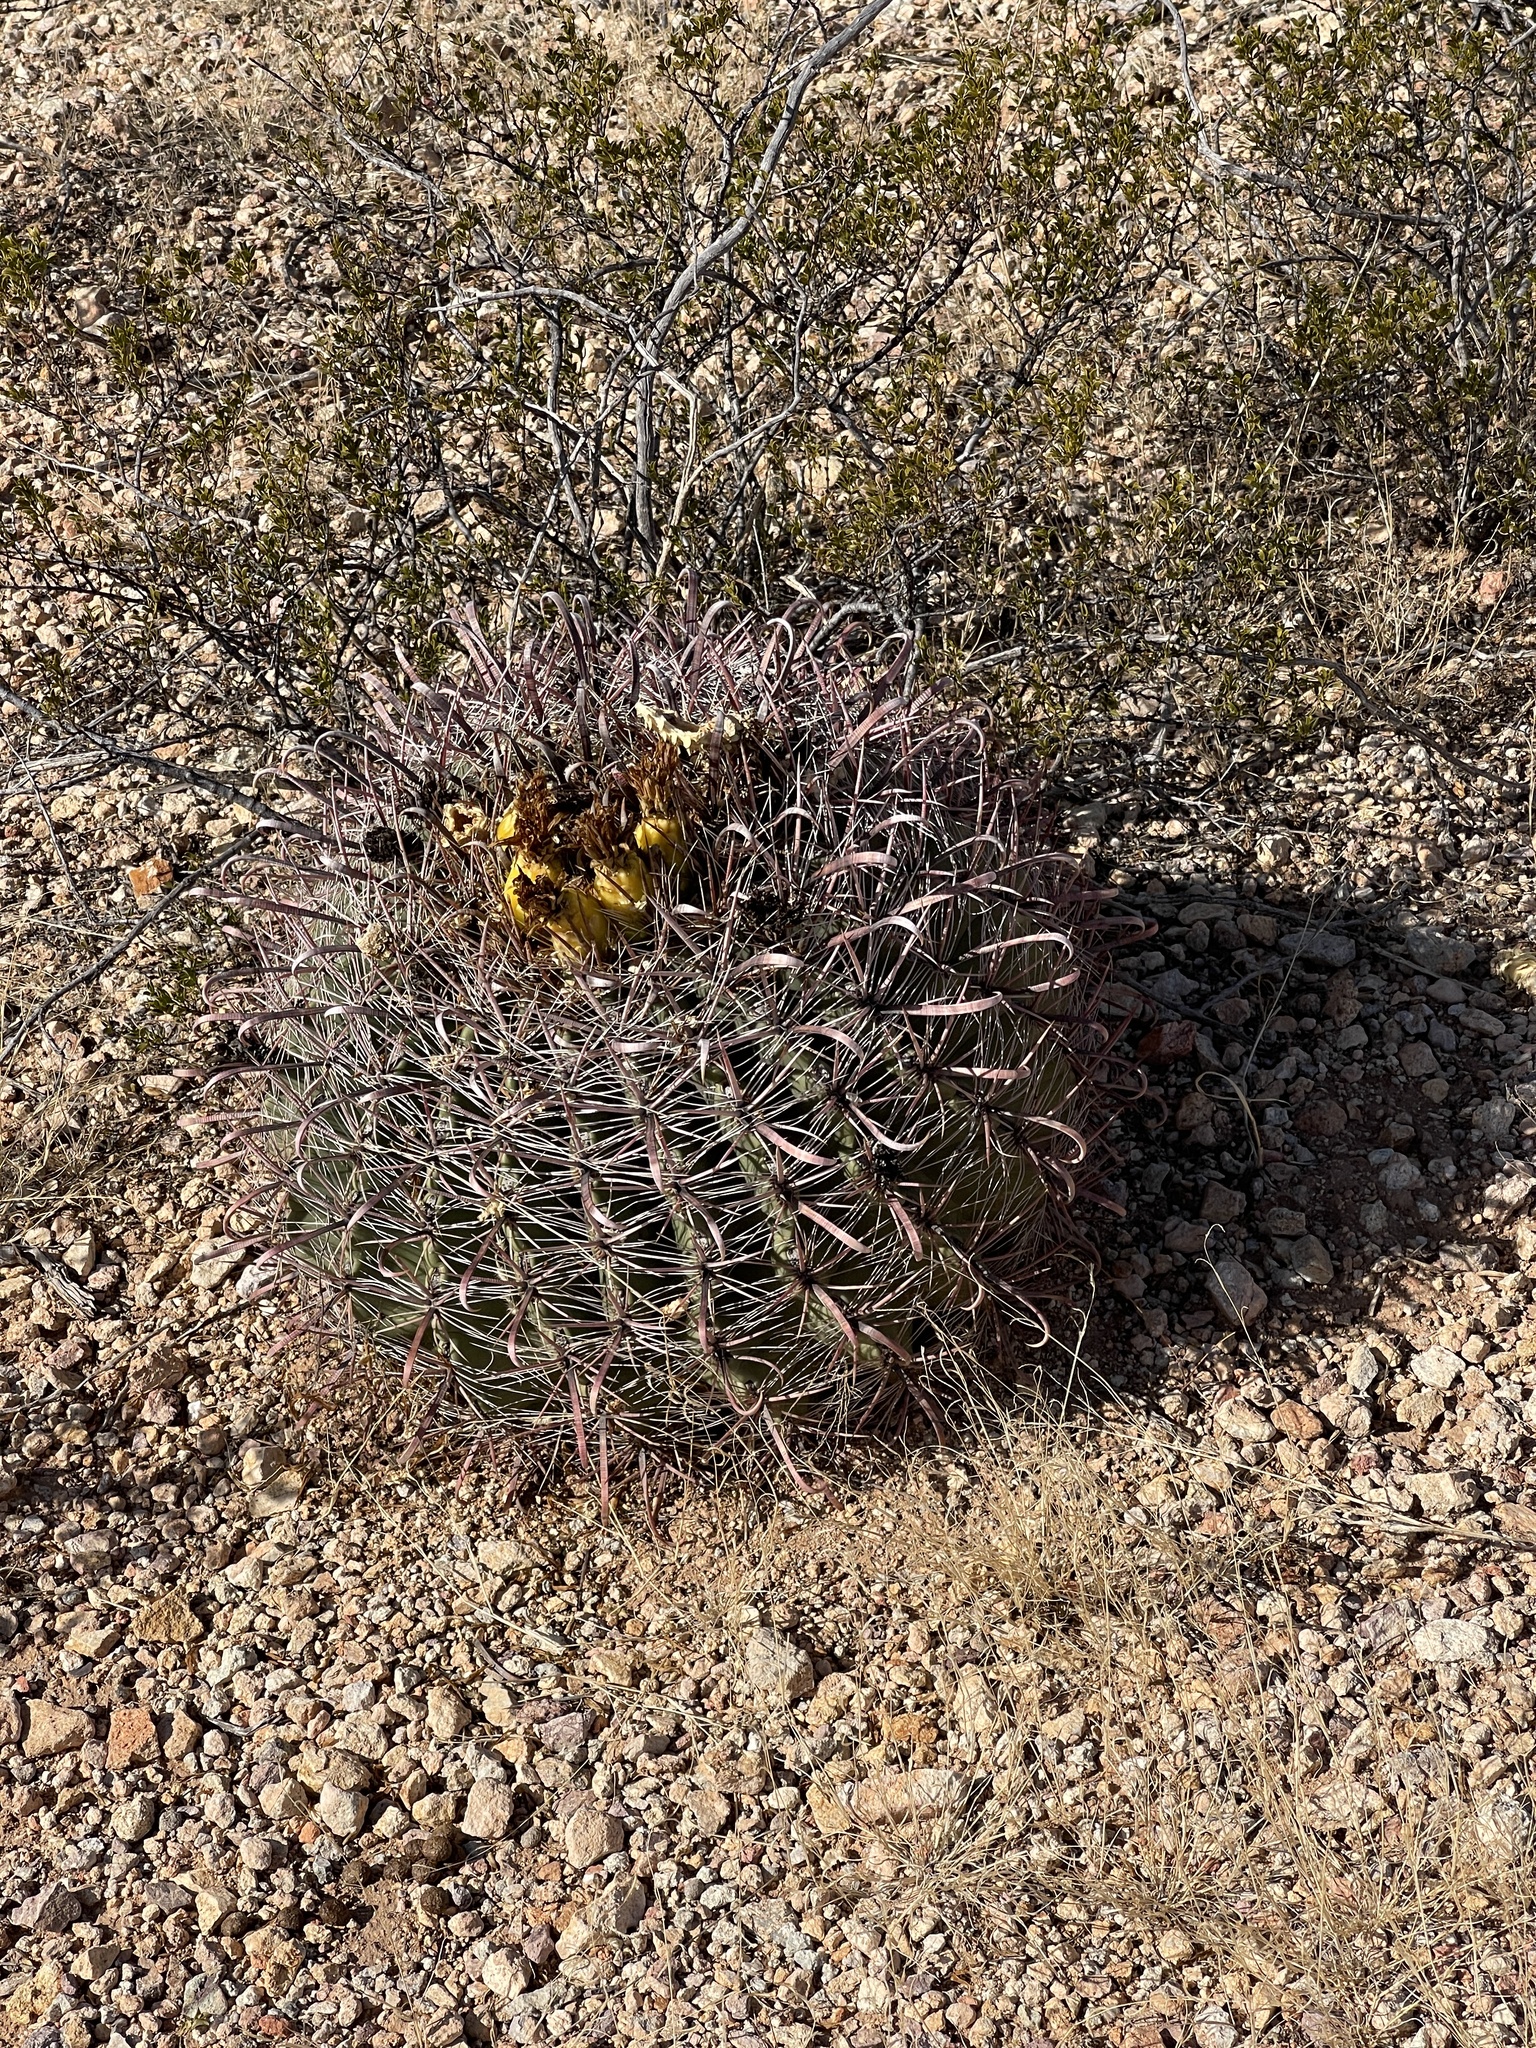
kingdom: Plantae
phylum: Tracheophyta
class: Magnoliopsida
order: Caryophyllales
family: Cactaceae
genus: Ferocactus
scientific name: Ferocactus wislizeni
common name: Candy barrel cactus
